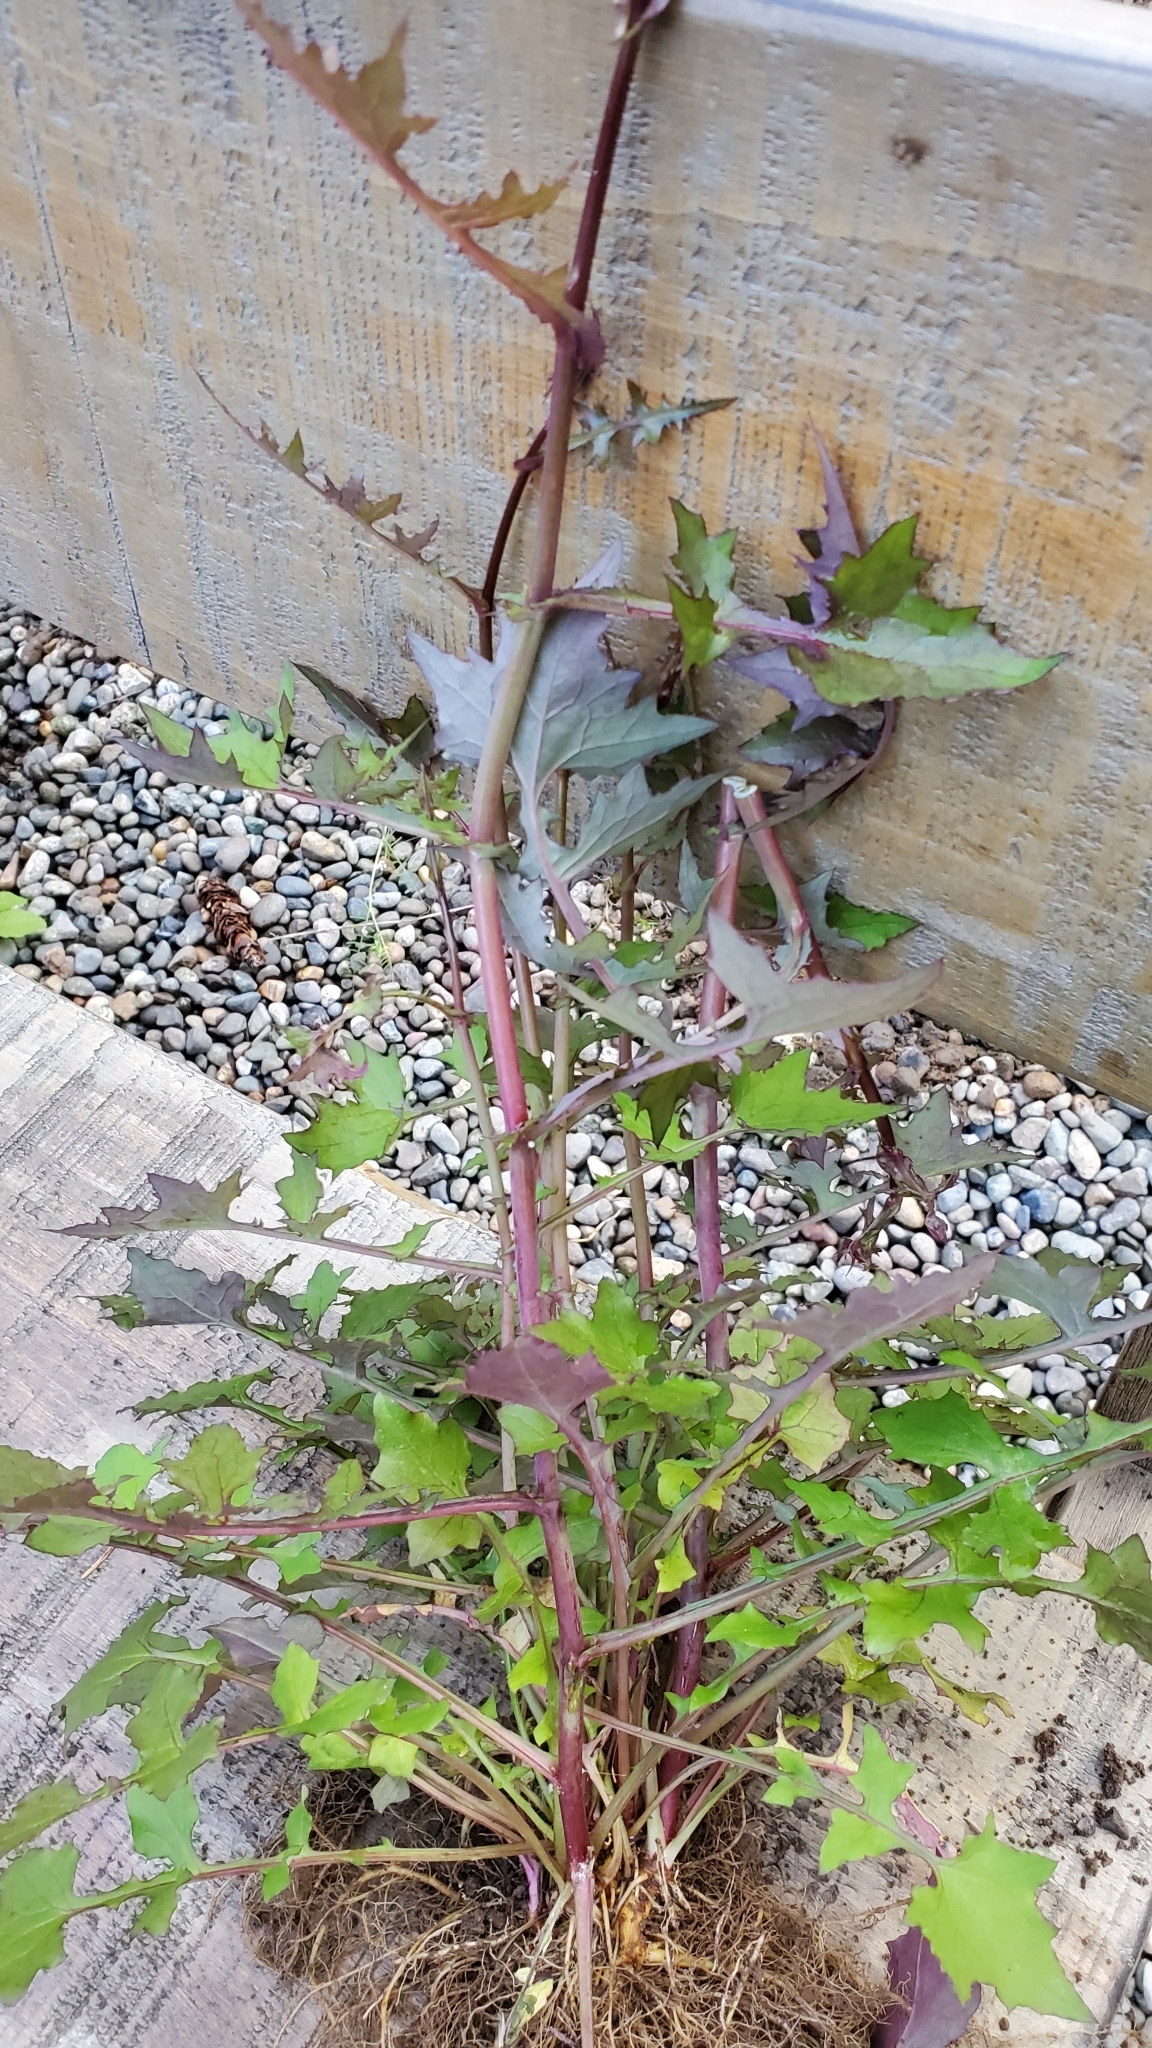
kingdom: Plantae
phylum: Tracheophyta
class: Magnoliopsida
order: Asterales
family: Asteraceae
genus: Mycelis
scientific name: Mycelis muralis
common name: Wall lettuce
